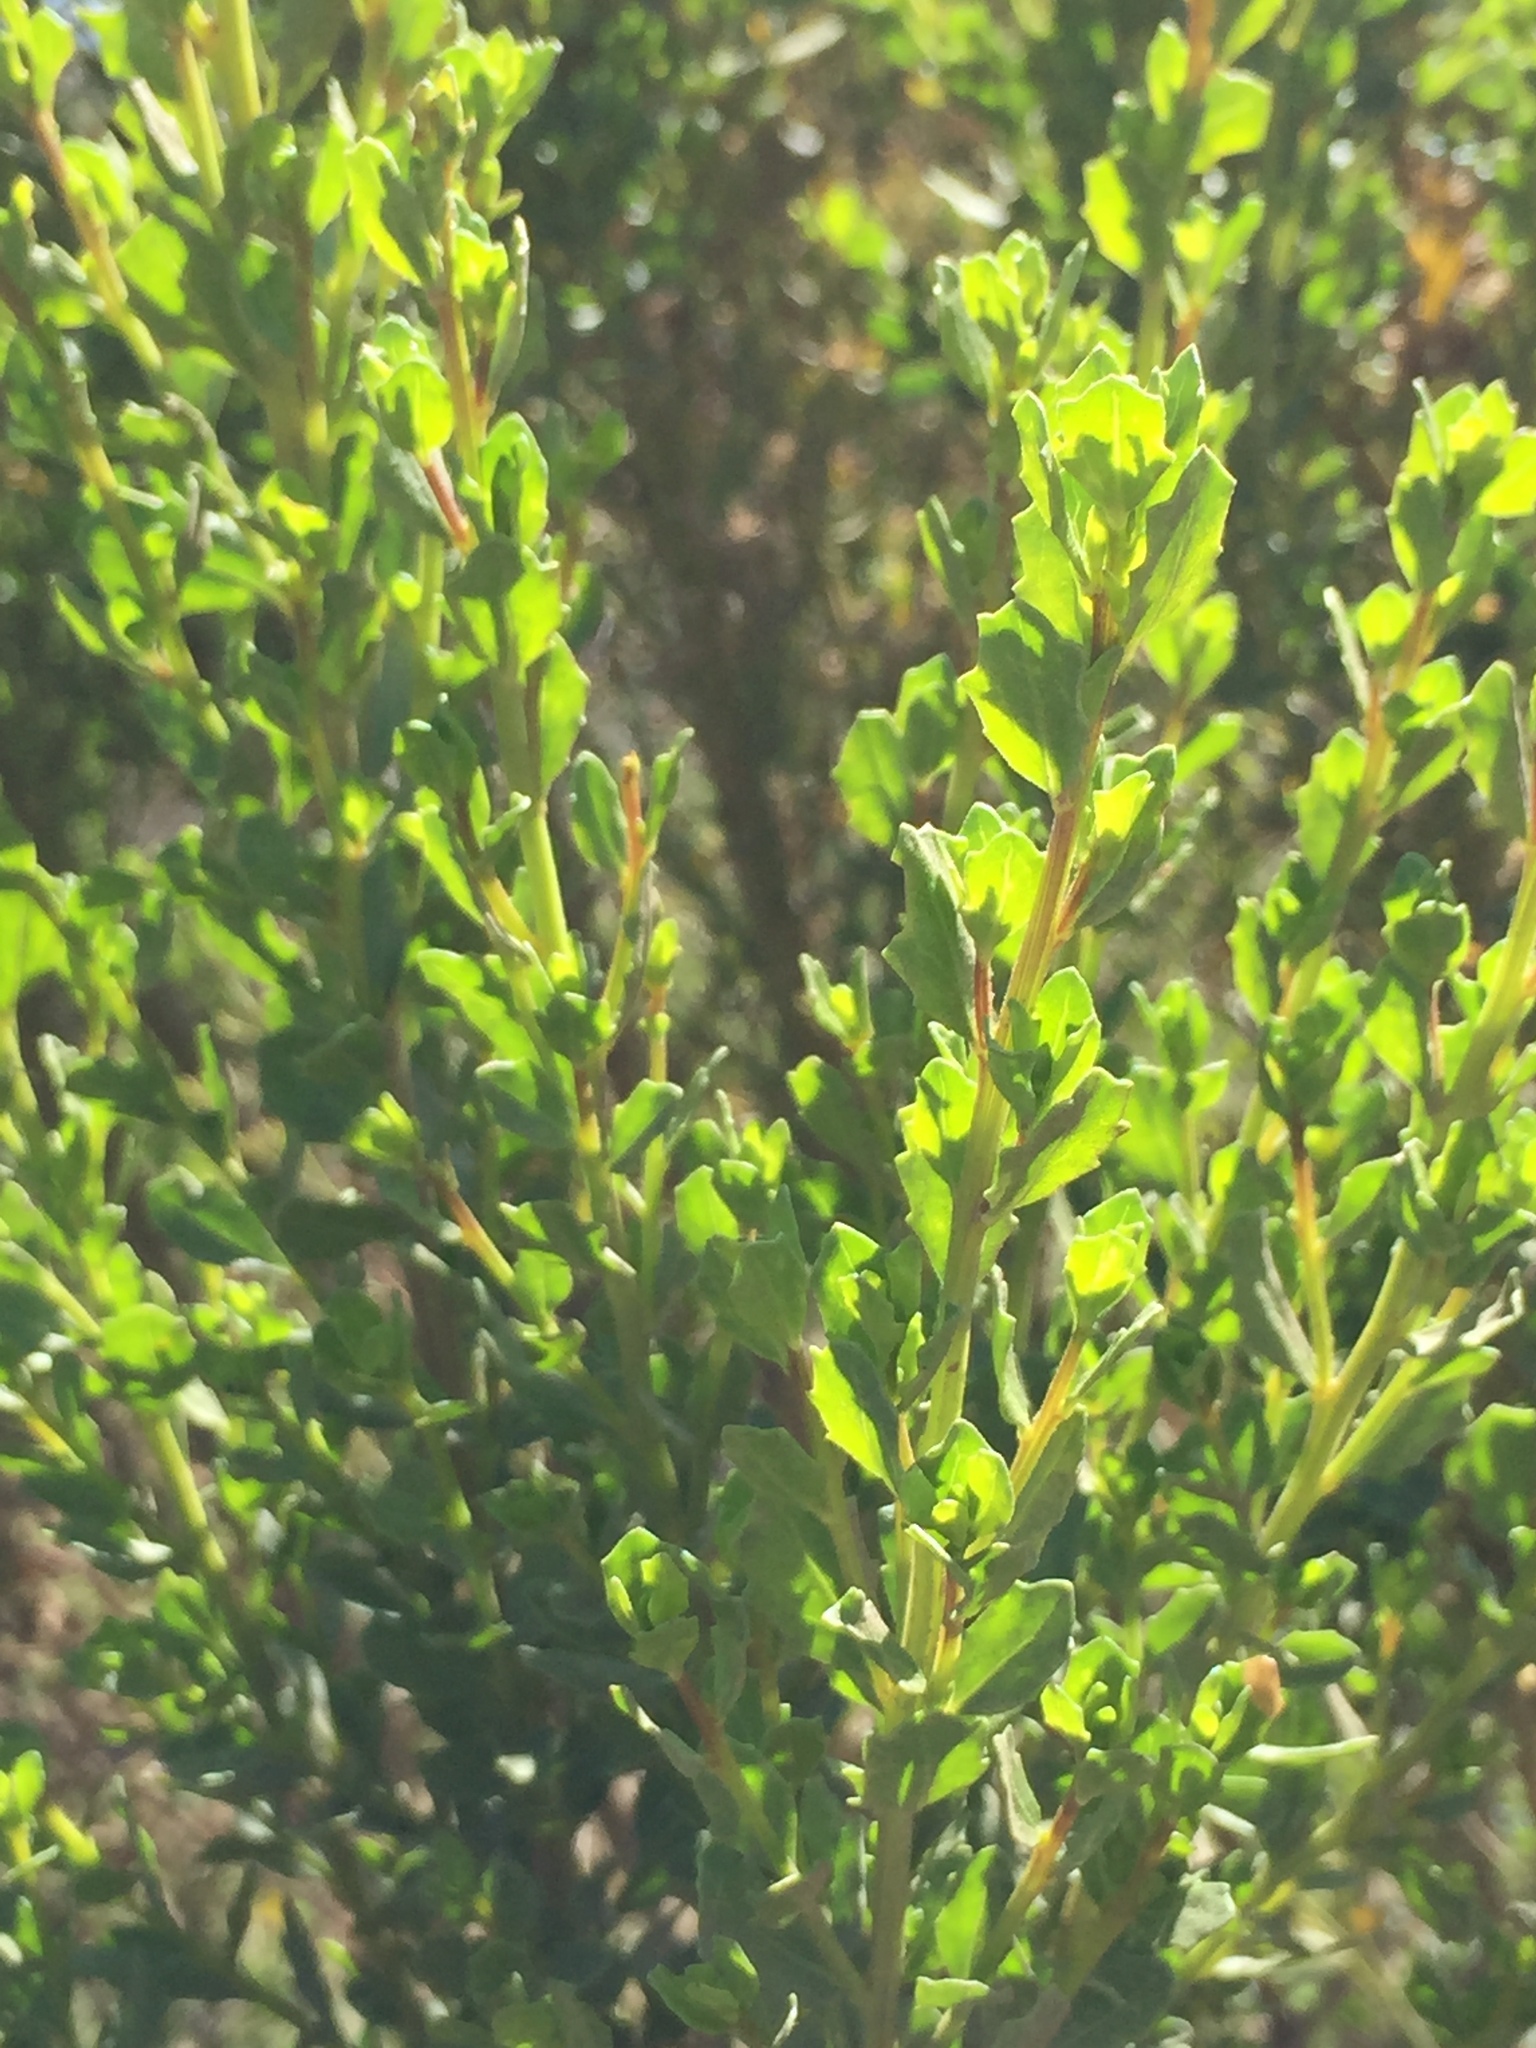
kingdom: Plantae
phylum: Tracheophyta
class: Magnoliopsida
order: Asterales
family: Asteraceae
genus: Baccharis
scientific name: Baccharis pilularis
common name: Coyotebrush
